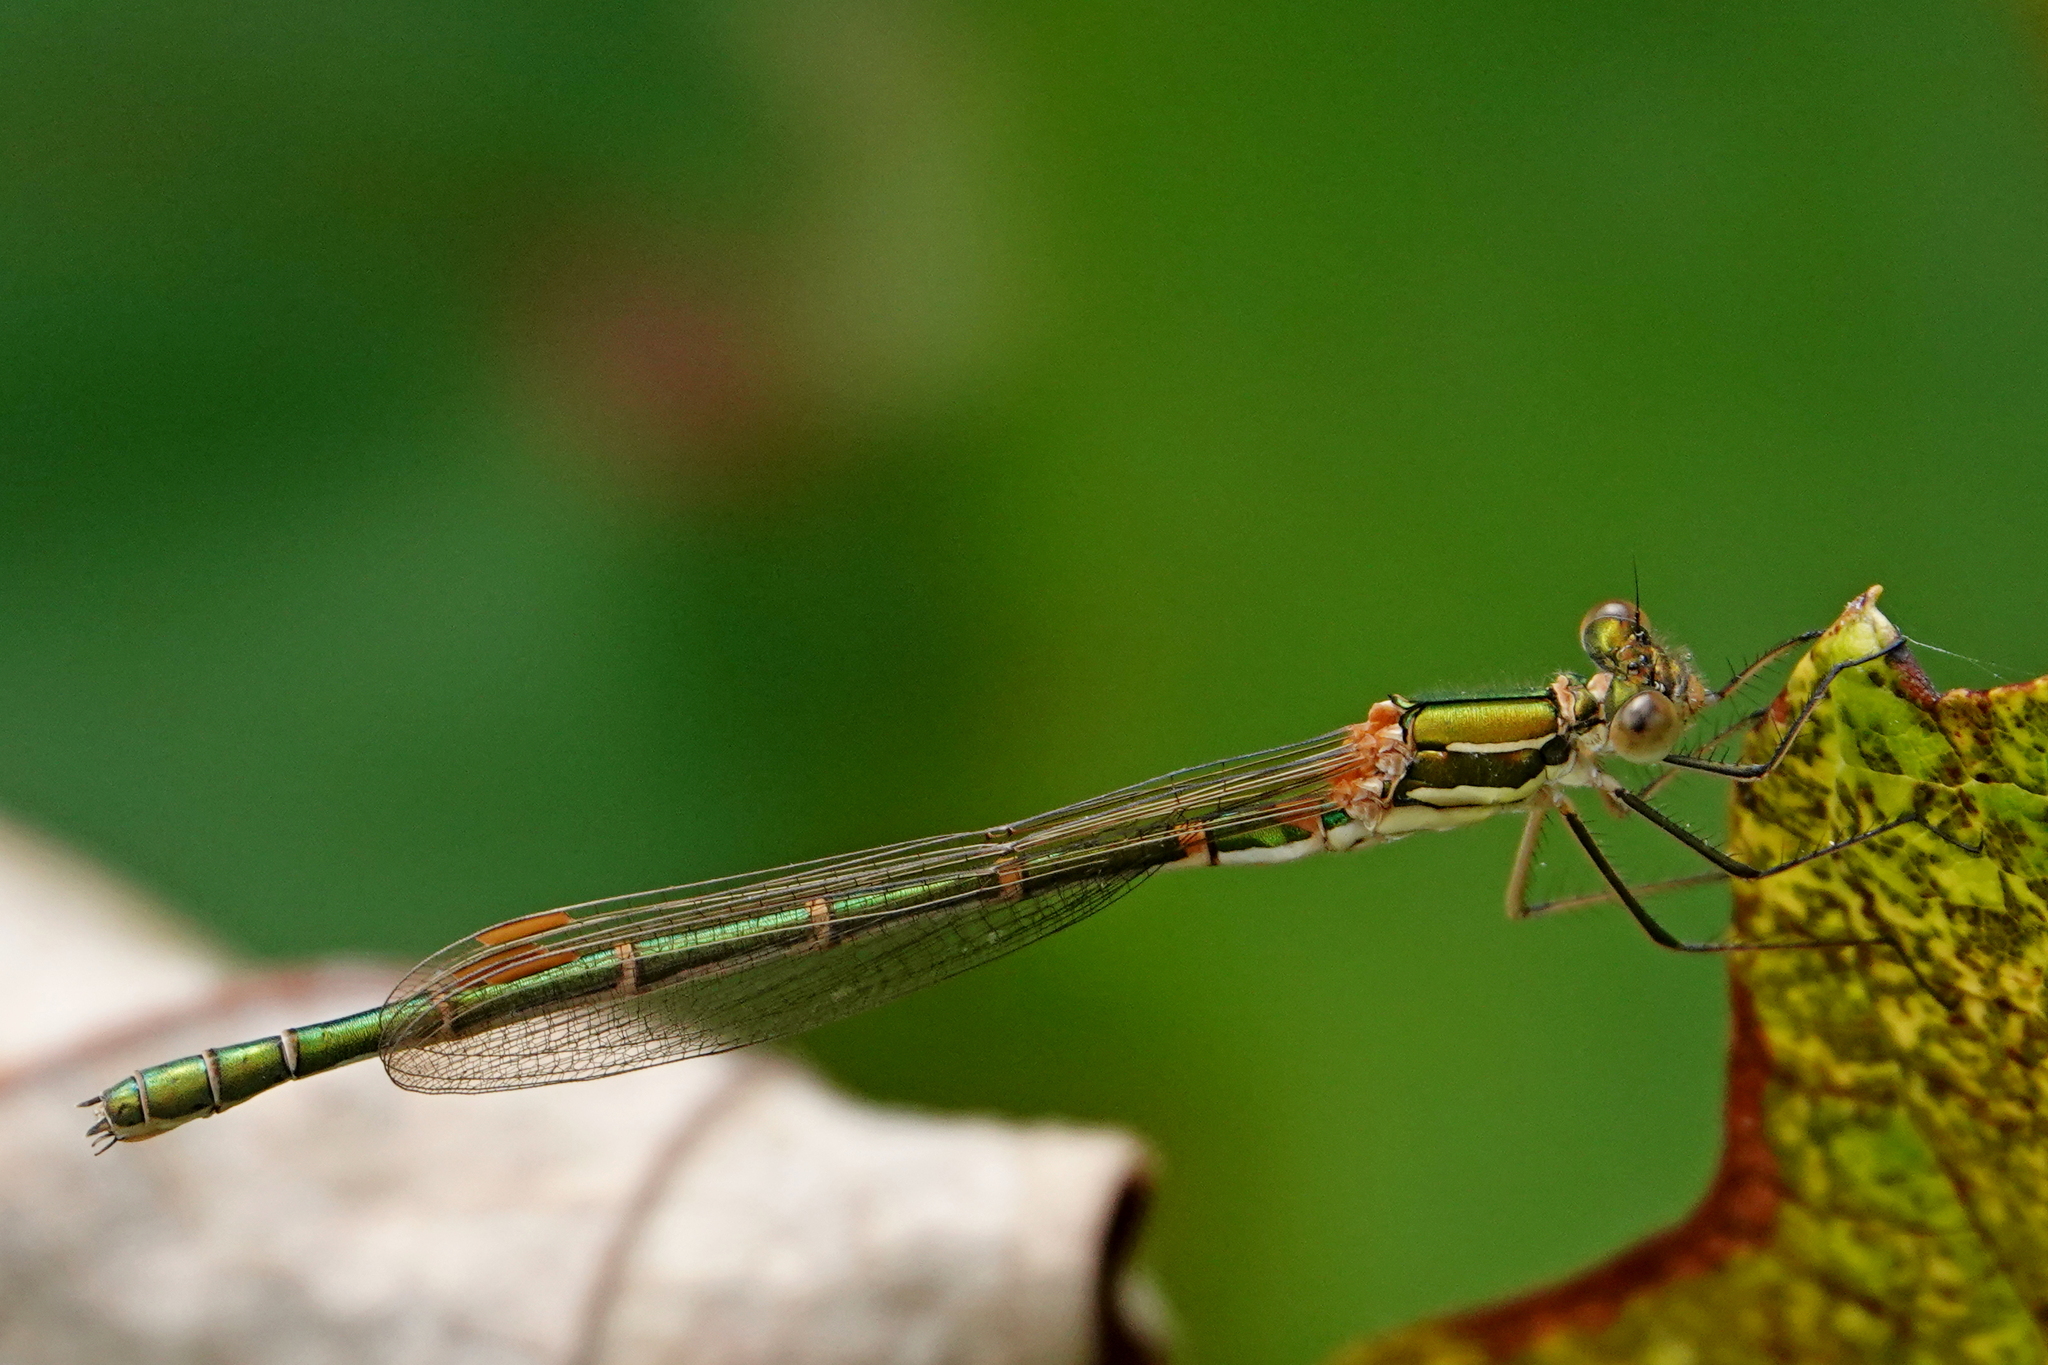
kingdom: Animalia
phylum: Arthropoda
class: Insecta
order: Odonata
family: Lestidae
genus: Austrolestes
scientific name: Austrolestes cingulatus
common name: Metallic ringtail
